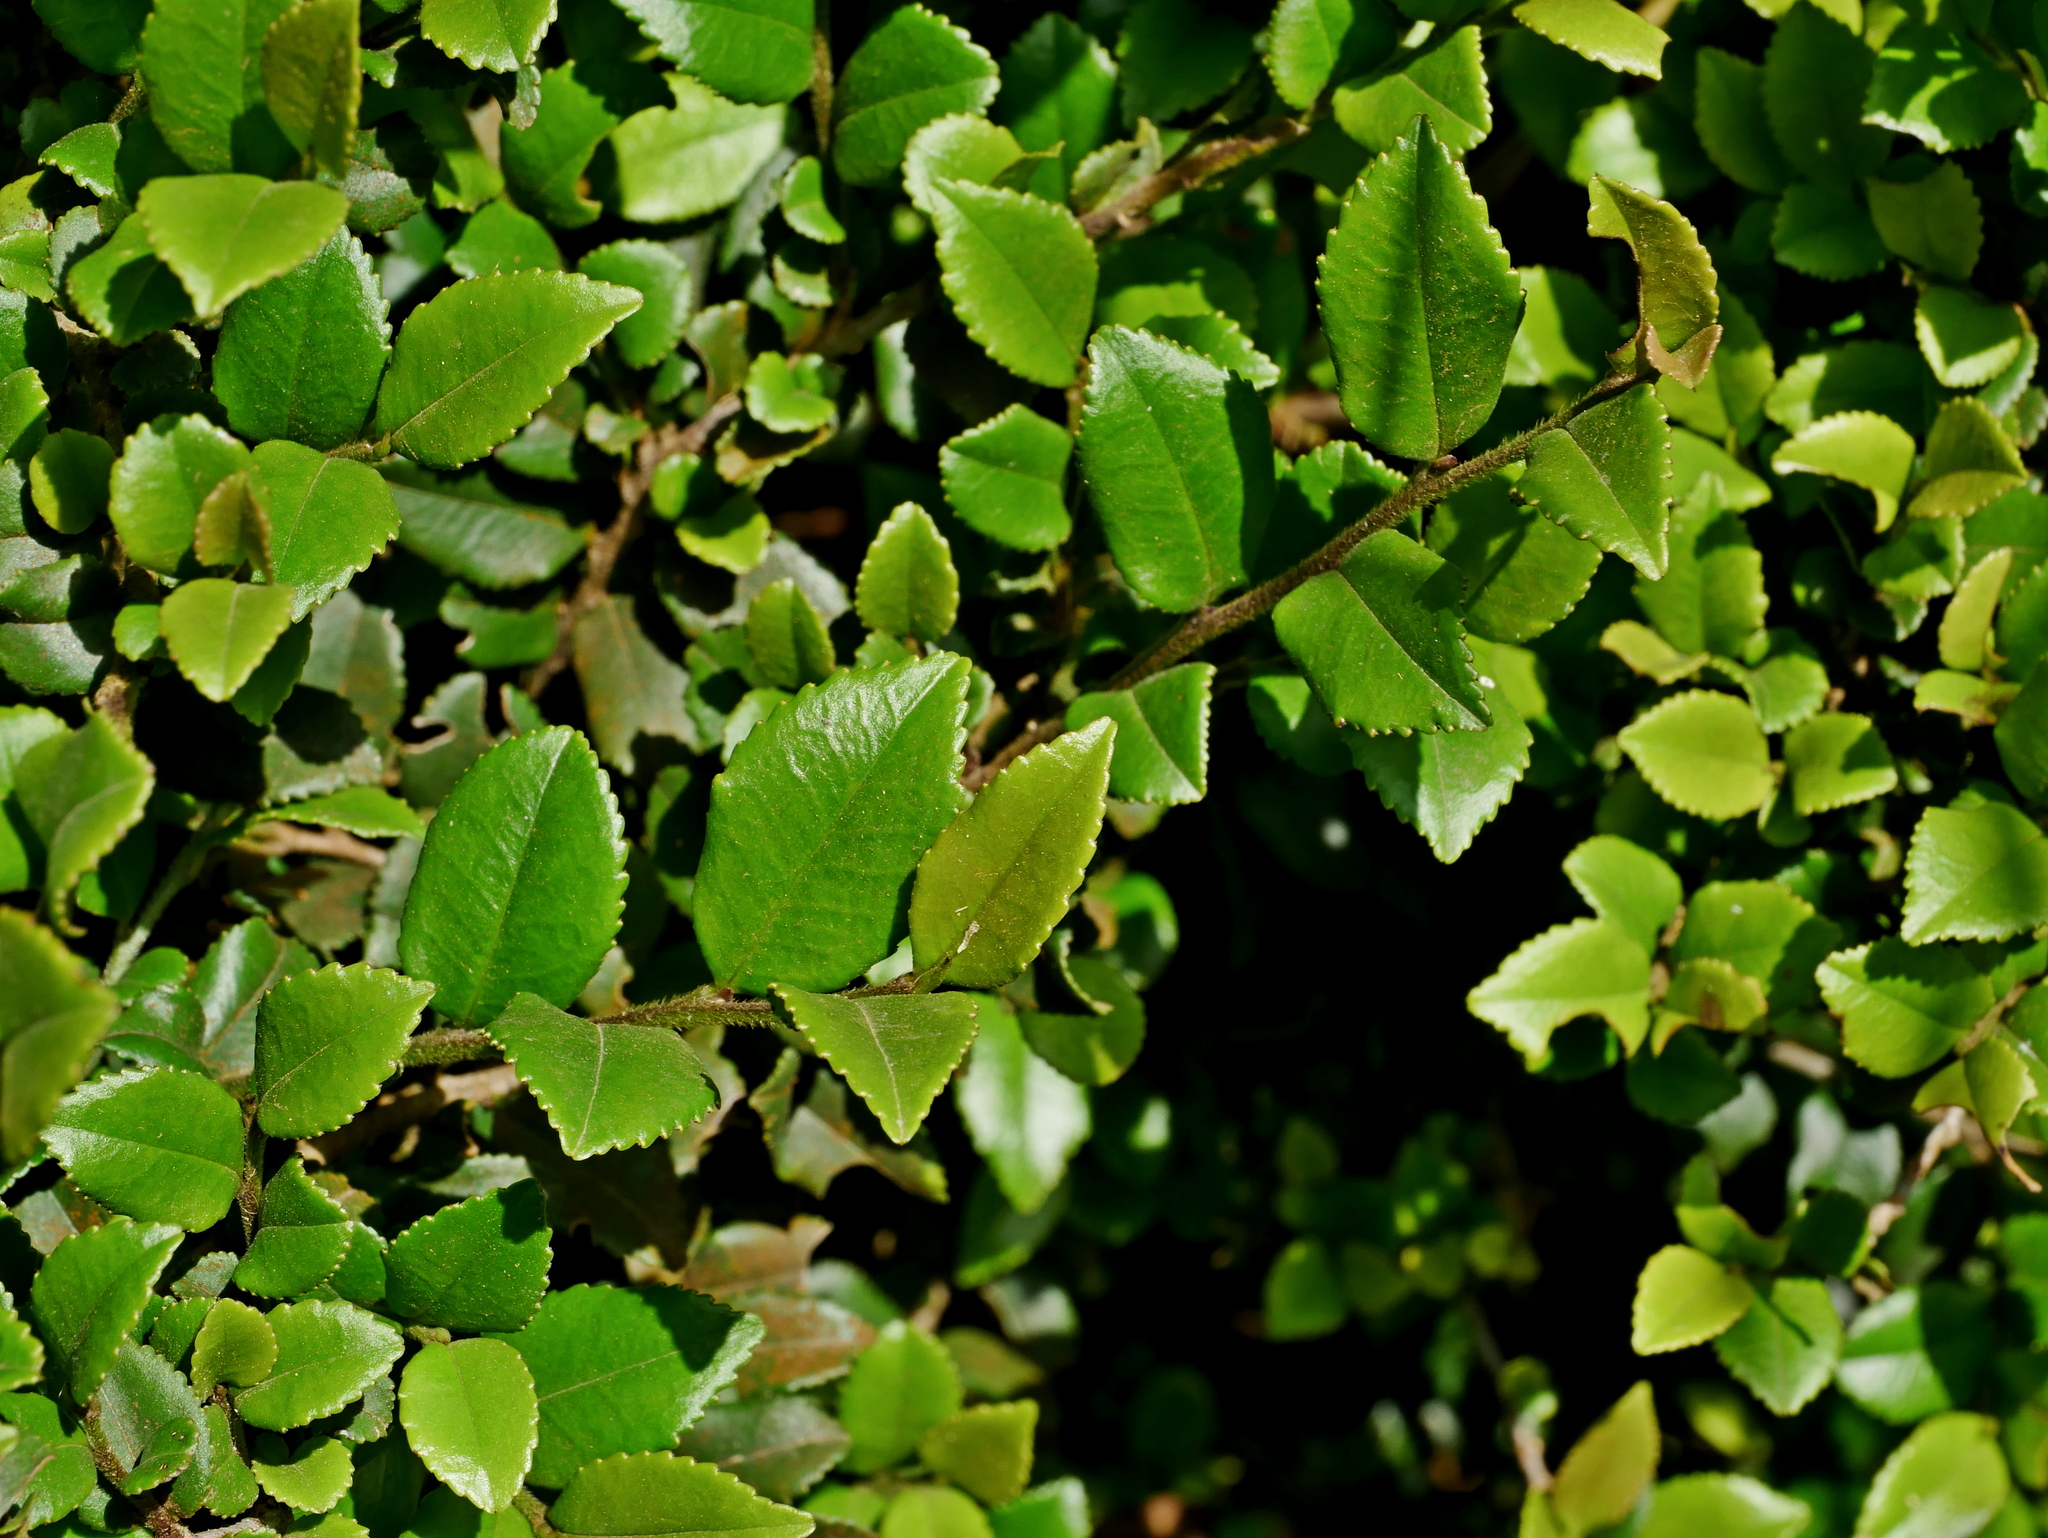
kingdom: Plantae
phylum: Tracheophyta
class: Magnoliopsida
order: Ericales
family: Pentaphylacaceae
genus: Eurya
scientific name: Eurya crenatifolia
